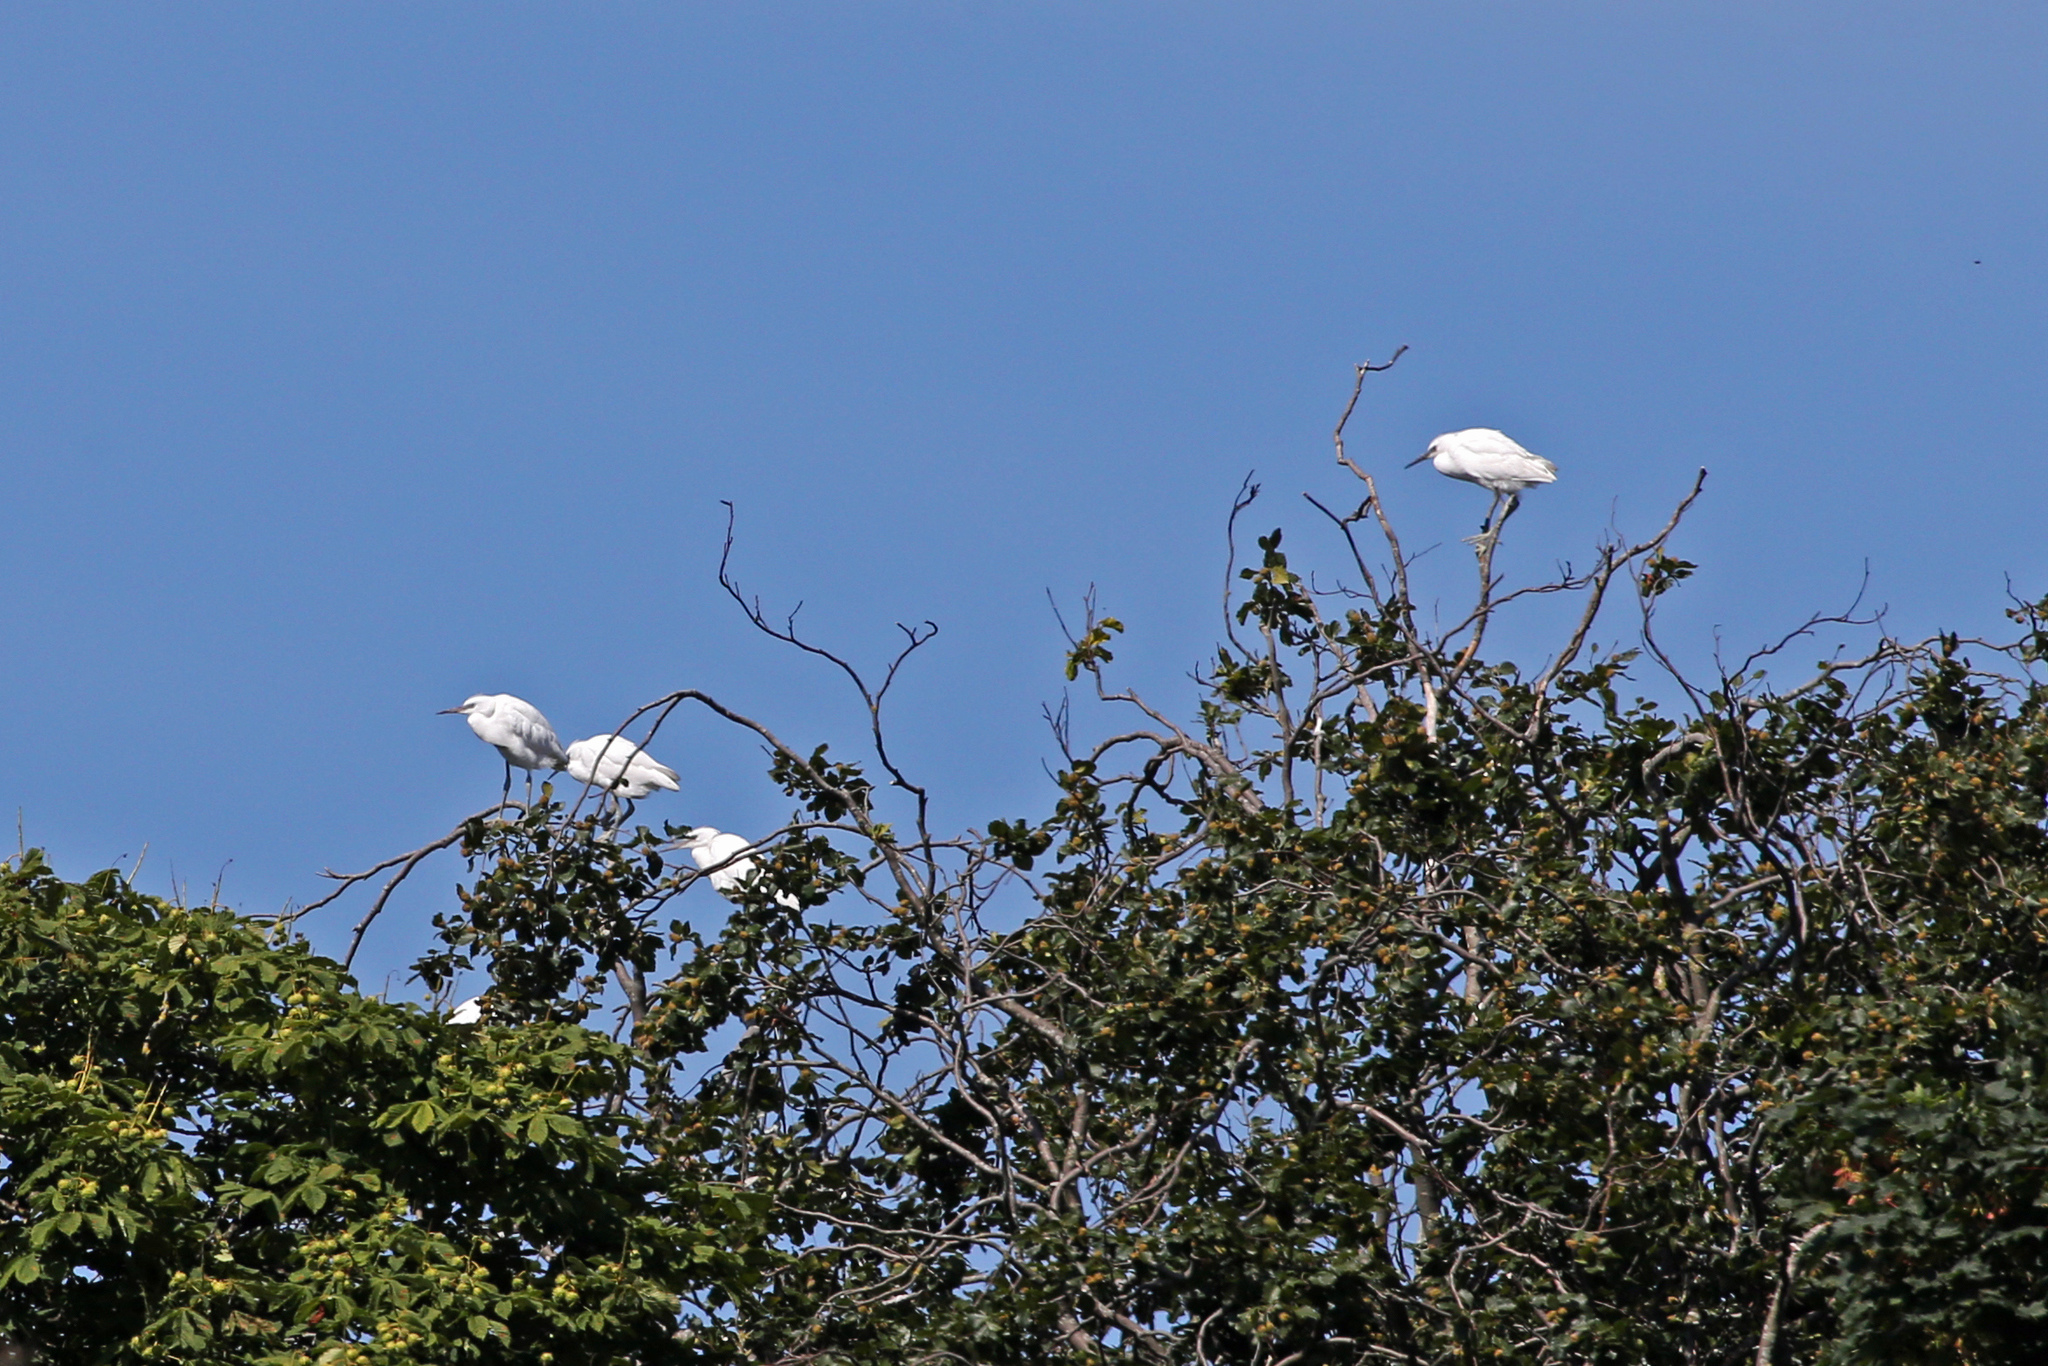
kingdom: Animalia
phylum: Chordata
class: Aves
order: Pelecaniformes
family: Ardeidae
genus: Egretta
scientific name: Egretta garzetta
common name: Little egret
